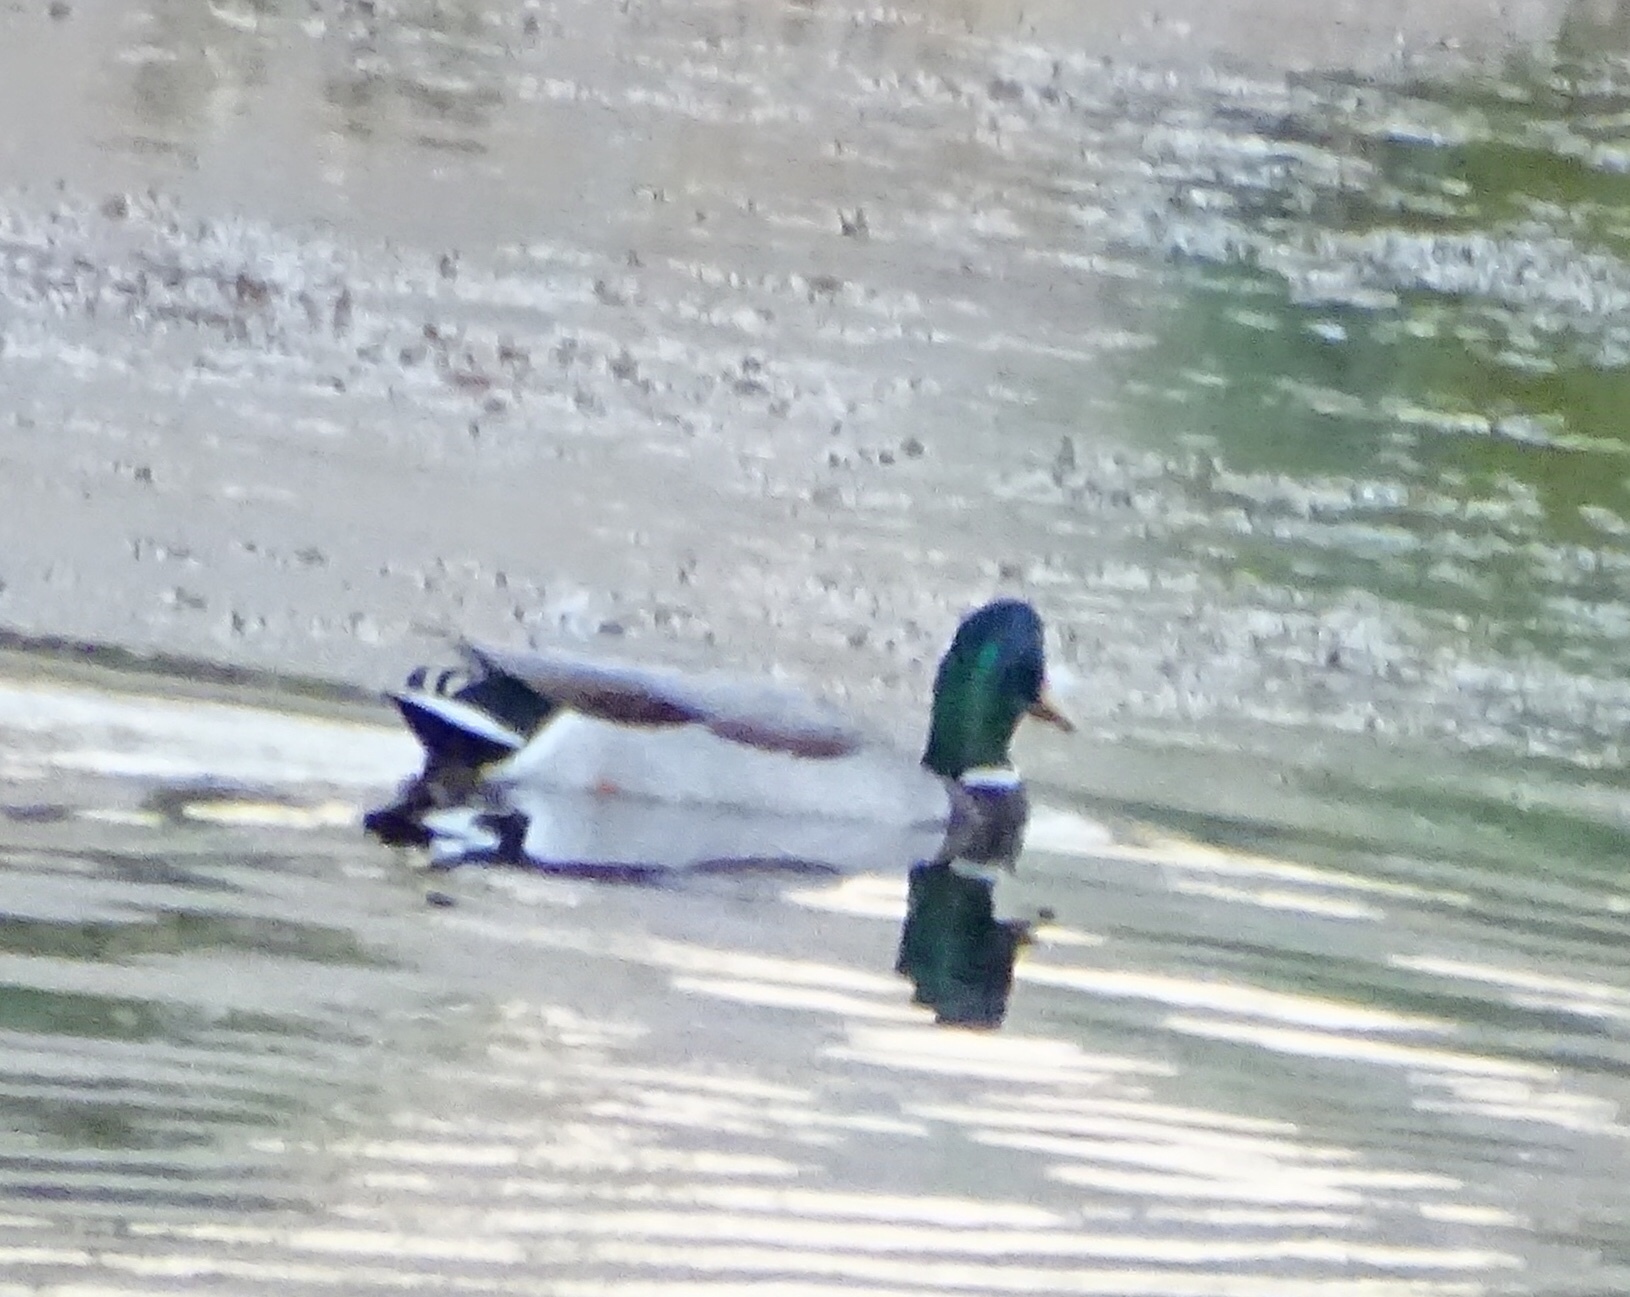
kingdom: Animalia
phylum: Chordata
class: Aves
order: Anseriformes
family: Anatidae
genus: Anas
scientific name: Anas platyrhynchos
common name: Mallard
